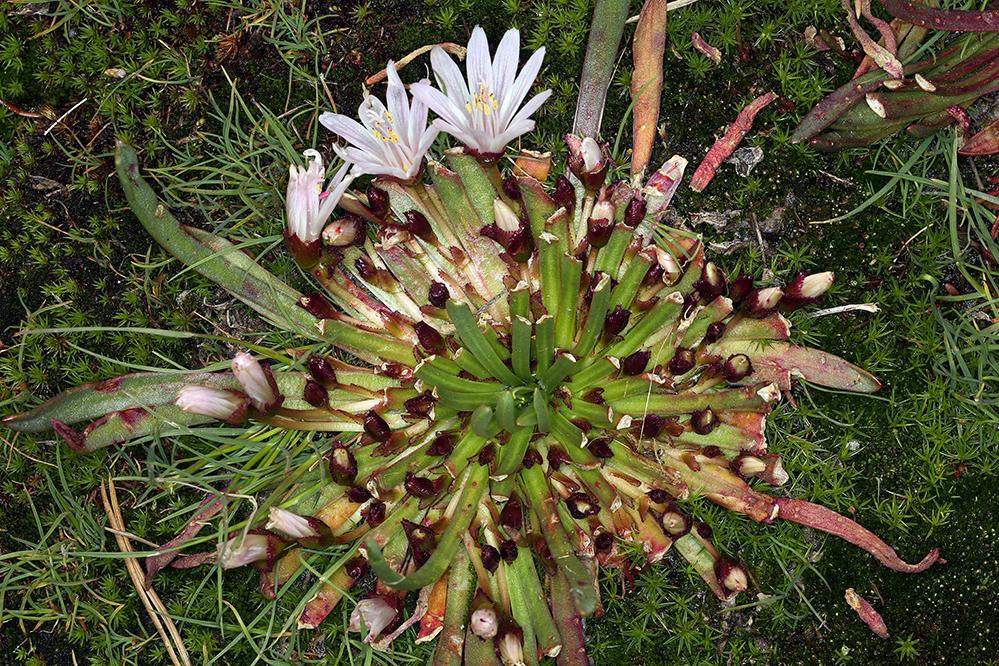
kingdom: Plantae
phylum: Tracheophyta
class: Magnoliopsida
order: Caryophyllales
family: Montiaceae
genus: Lewisia
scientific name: Lewisia longipetala
